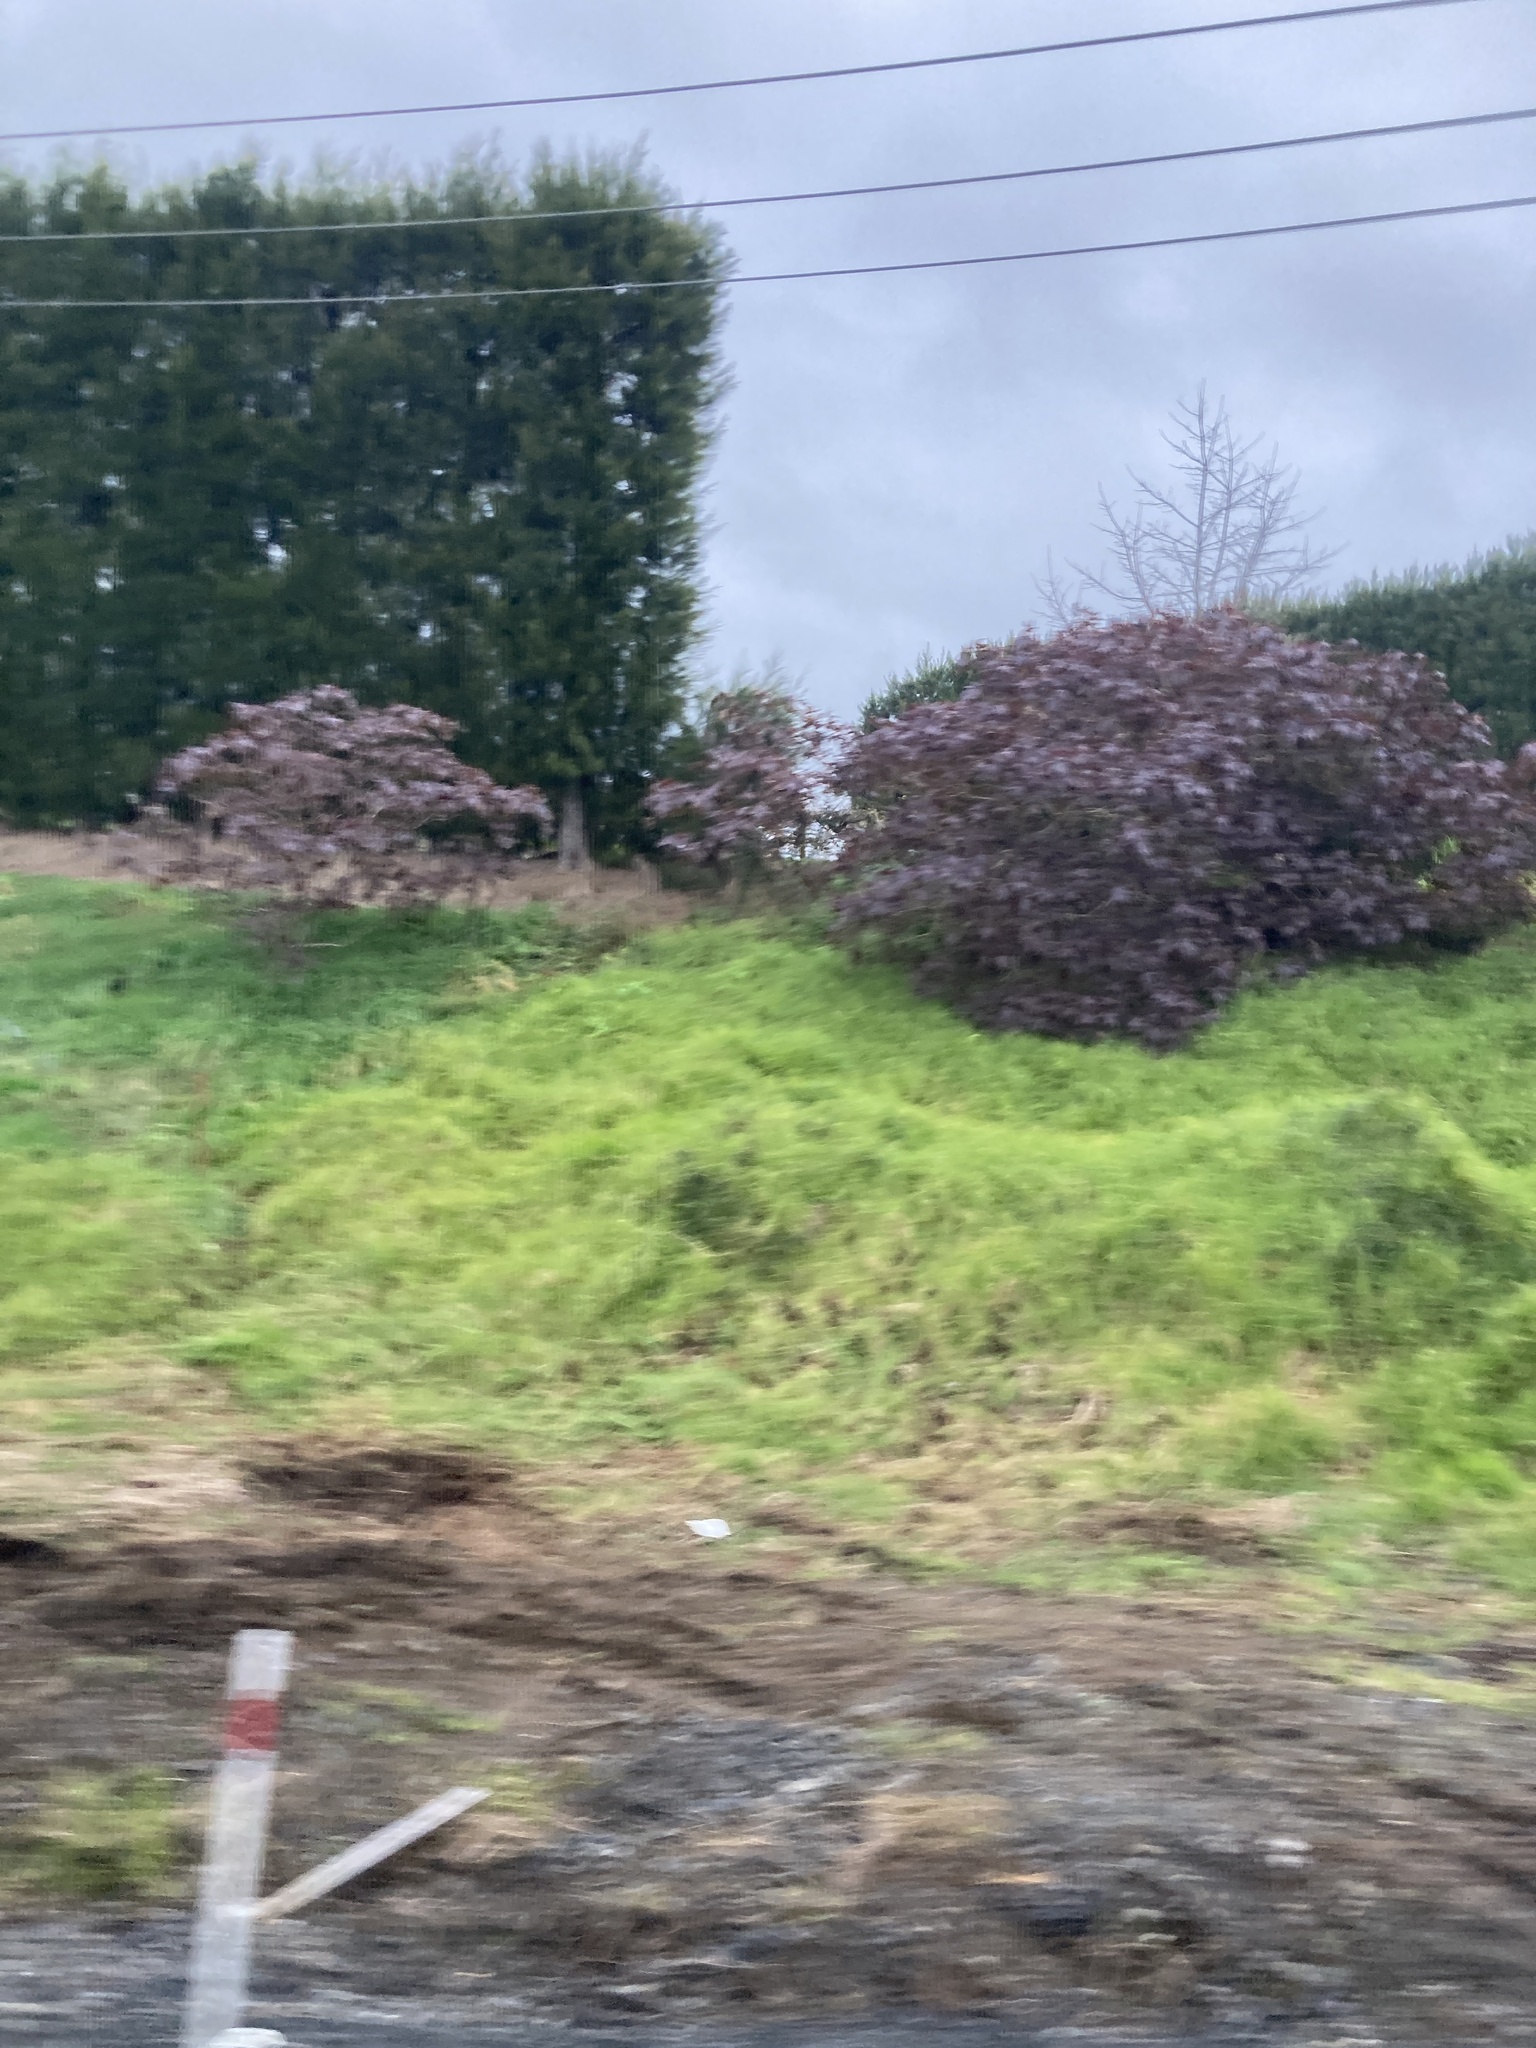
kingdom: Plantae
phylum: Tracheophyta
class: Magnoliopsida
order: Malpighiales
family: Euphorbiaceae
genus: Ricinus
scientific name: Ricinus communis
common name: Castor-oil-plant
